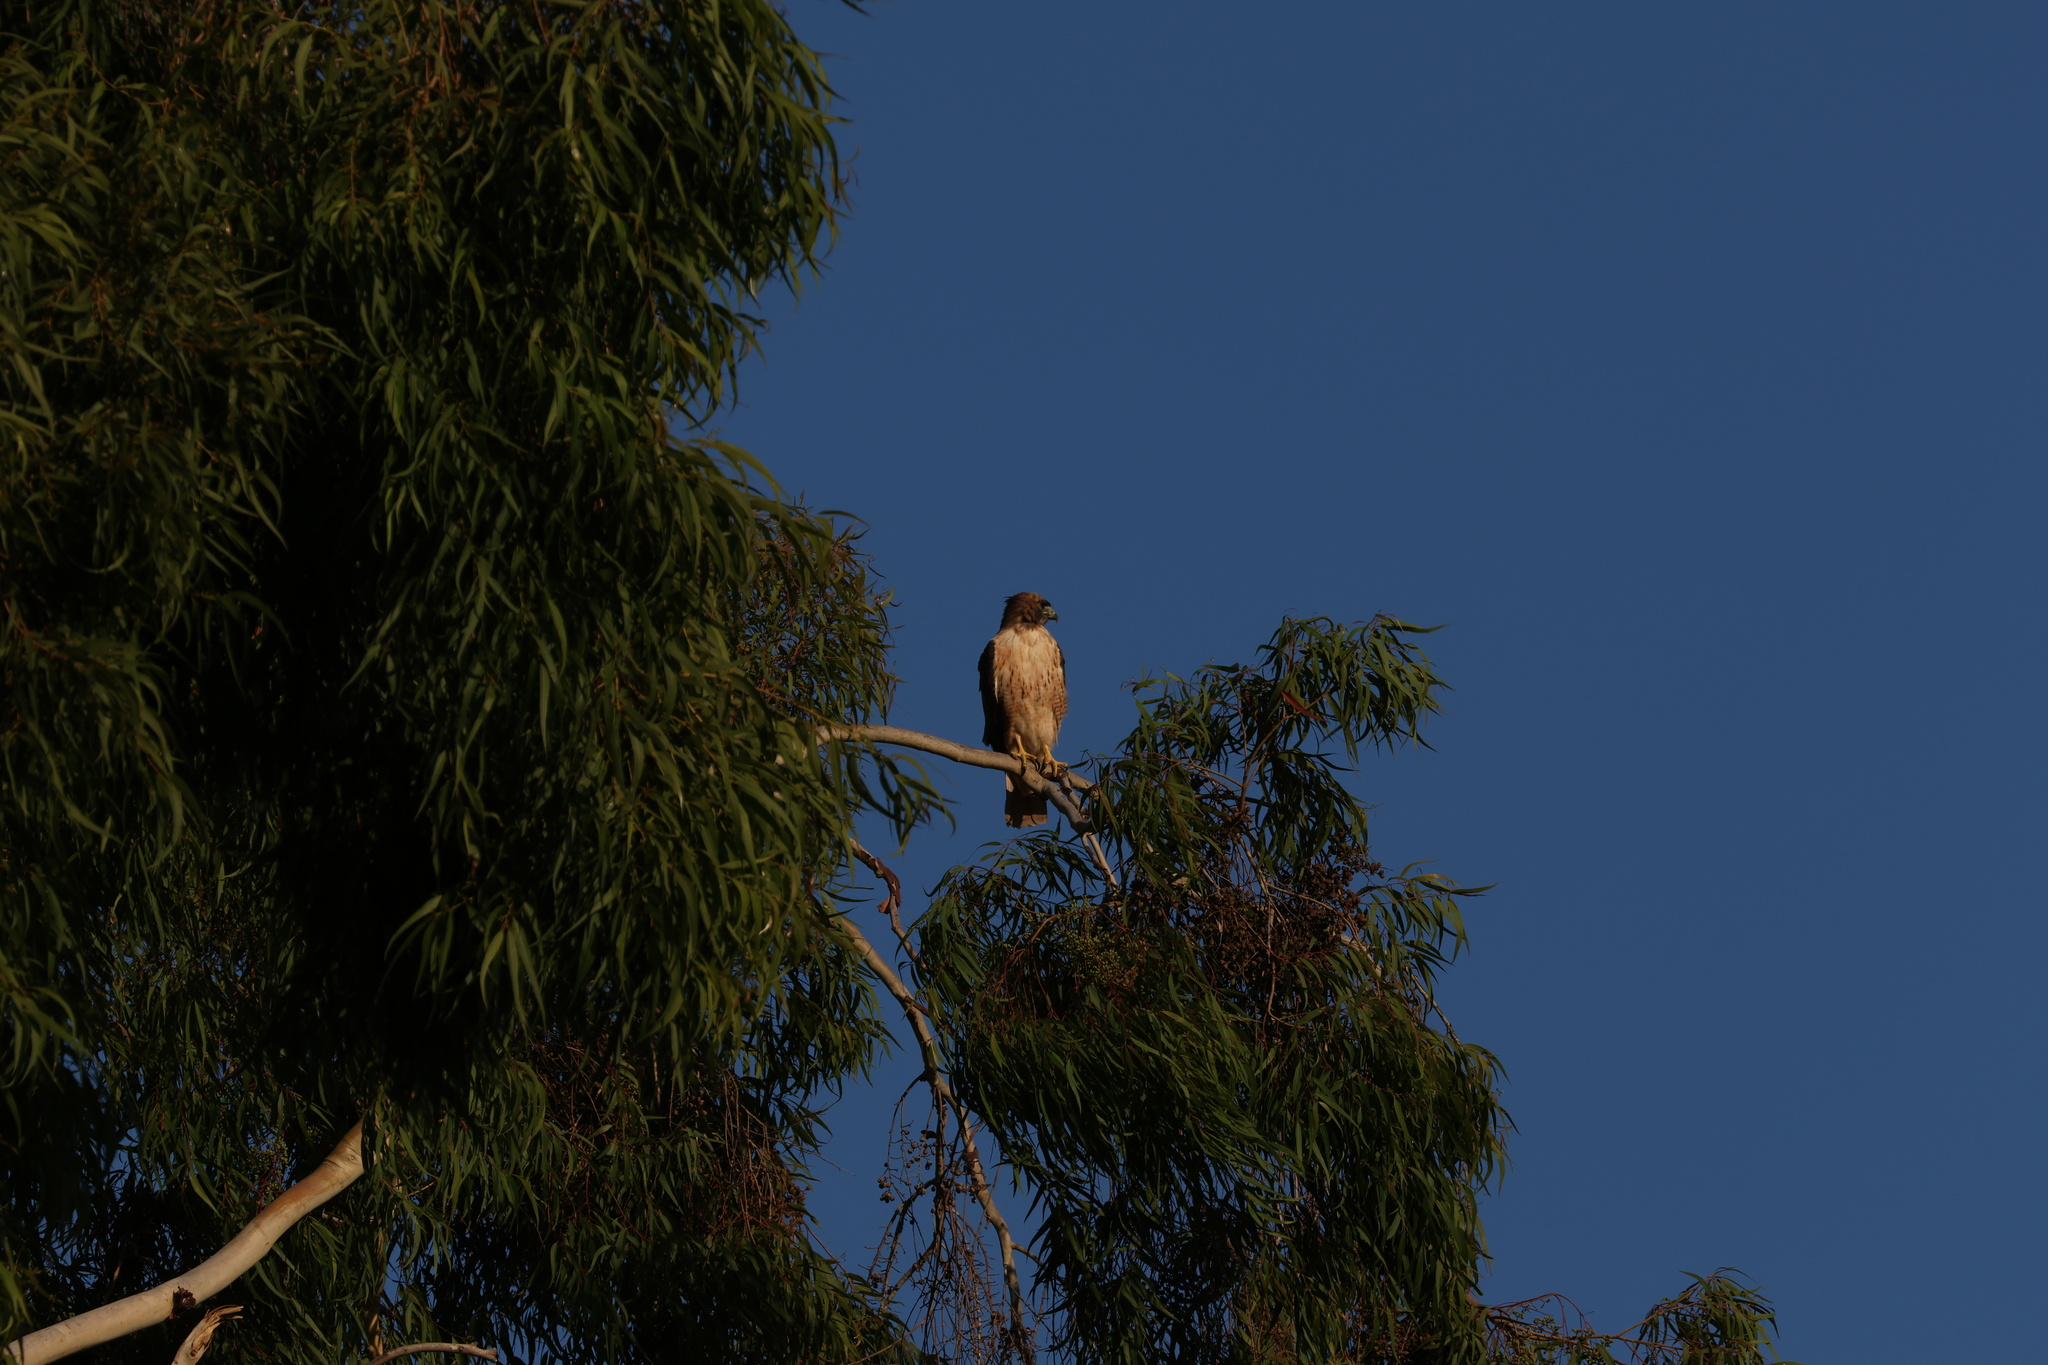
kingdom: Animalia
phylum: Chordata
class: Aves
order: Accipitriformes
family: Accipitridae
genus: Buteo
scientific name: Buteo jamaicensis
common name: Red-tailed hawk
